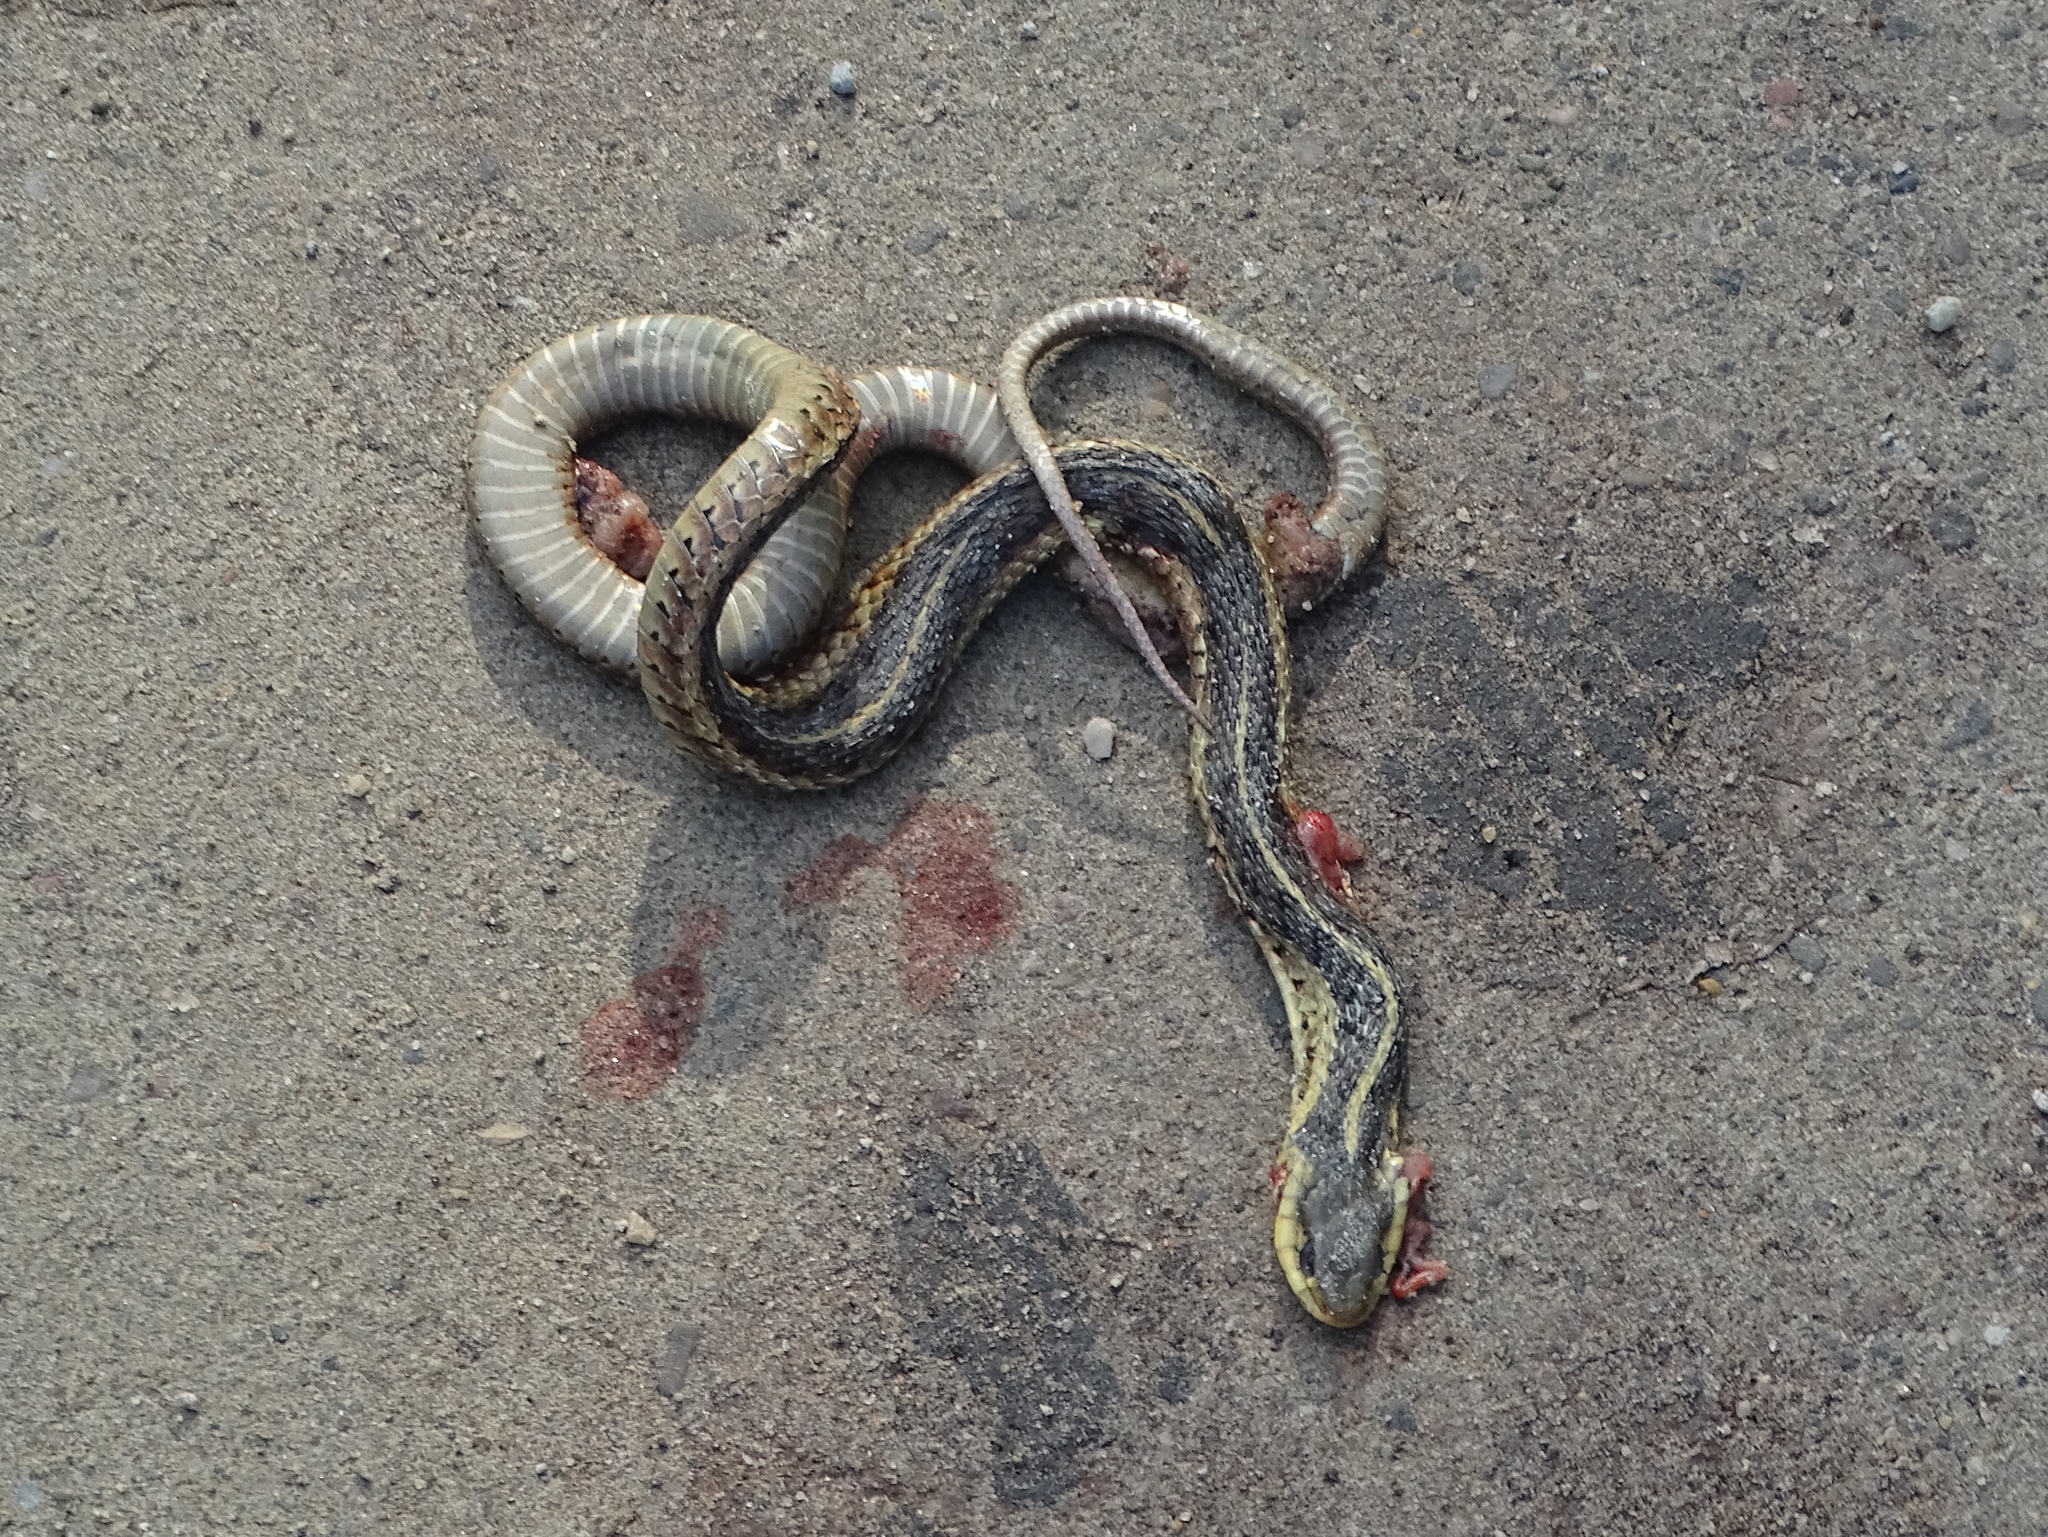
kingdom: Animalia
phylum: Chordata
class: Squamata
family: Colubridae
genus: Thamnophis
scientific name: Thamnophis sirtalis
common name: Common garter snake
